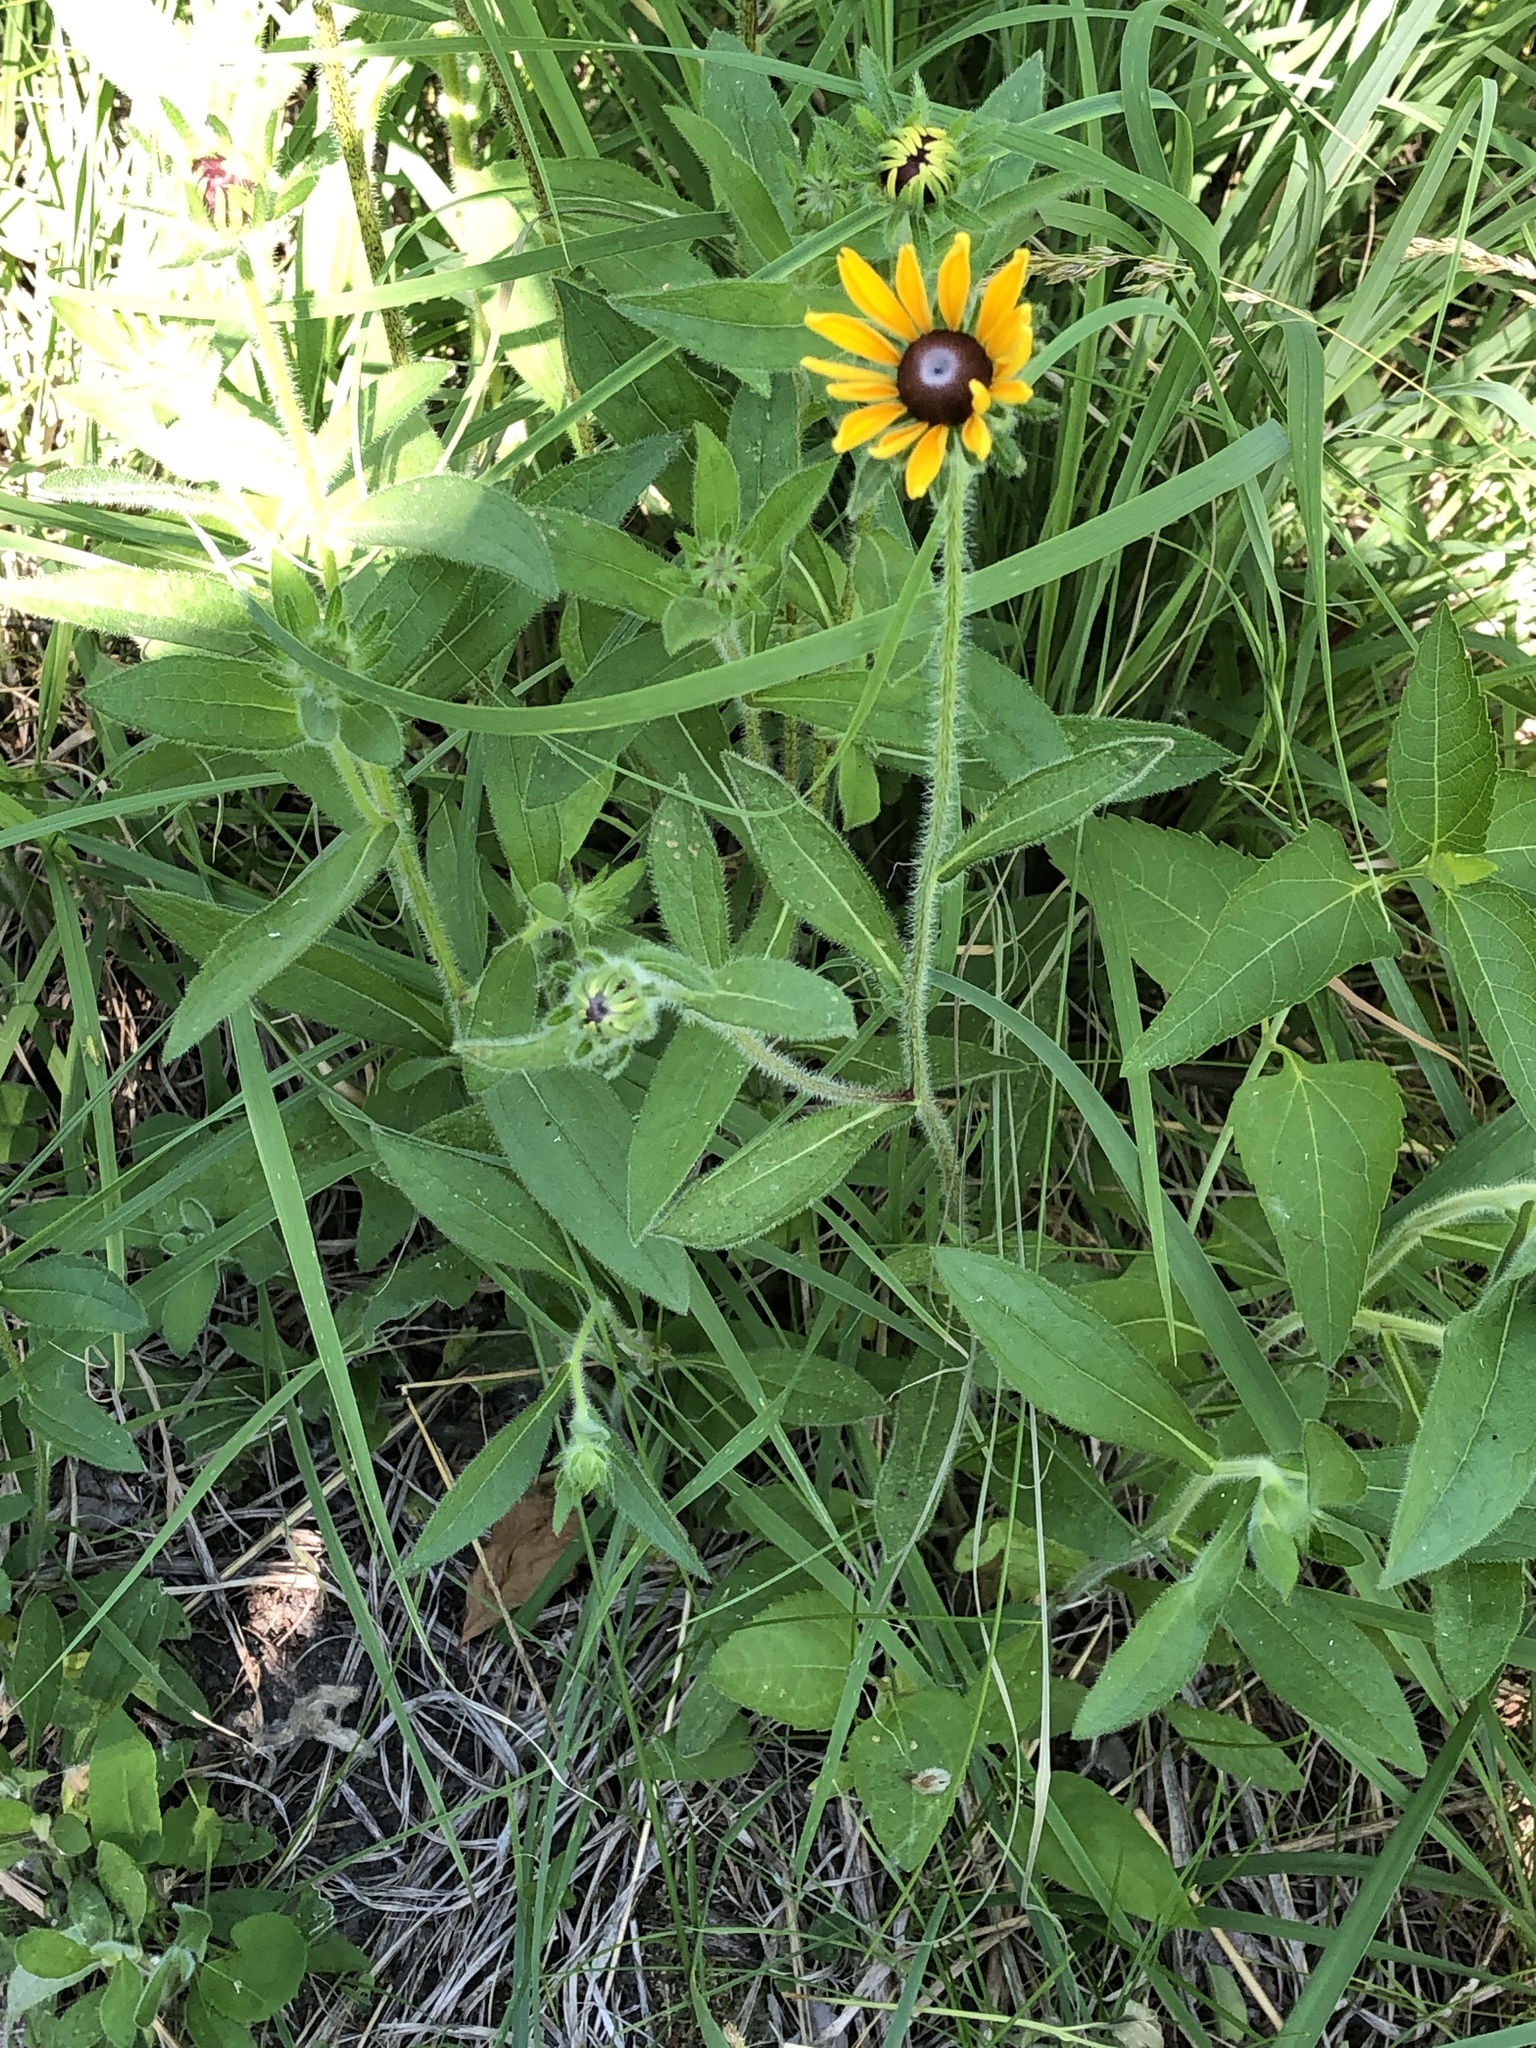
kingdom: Plantae
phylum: Tracheophyta
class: Magnoliopsida
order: Asterales
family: Asteraceae
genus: Rudbeckia
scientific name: Rudbeckia hirta
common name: Black-eyed-susan
